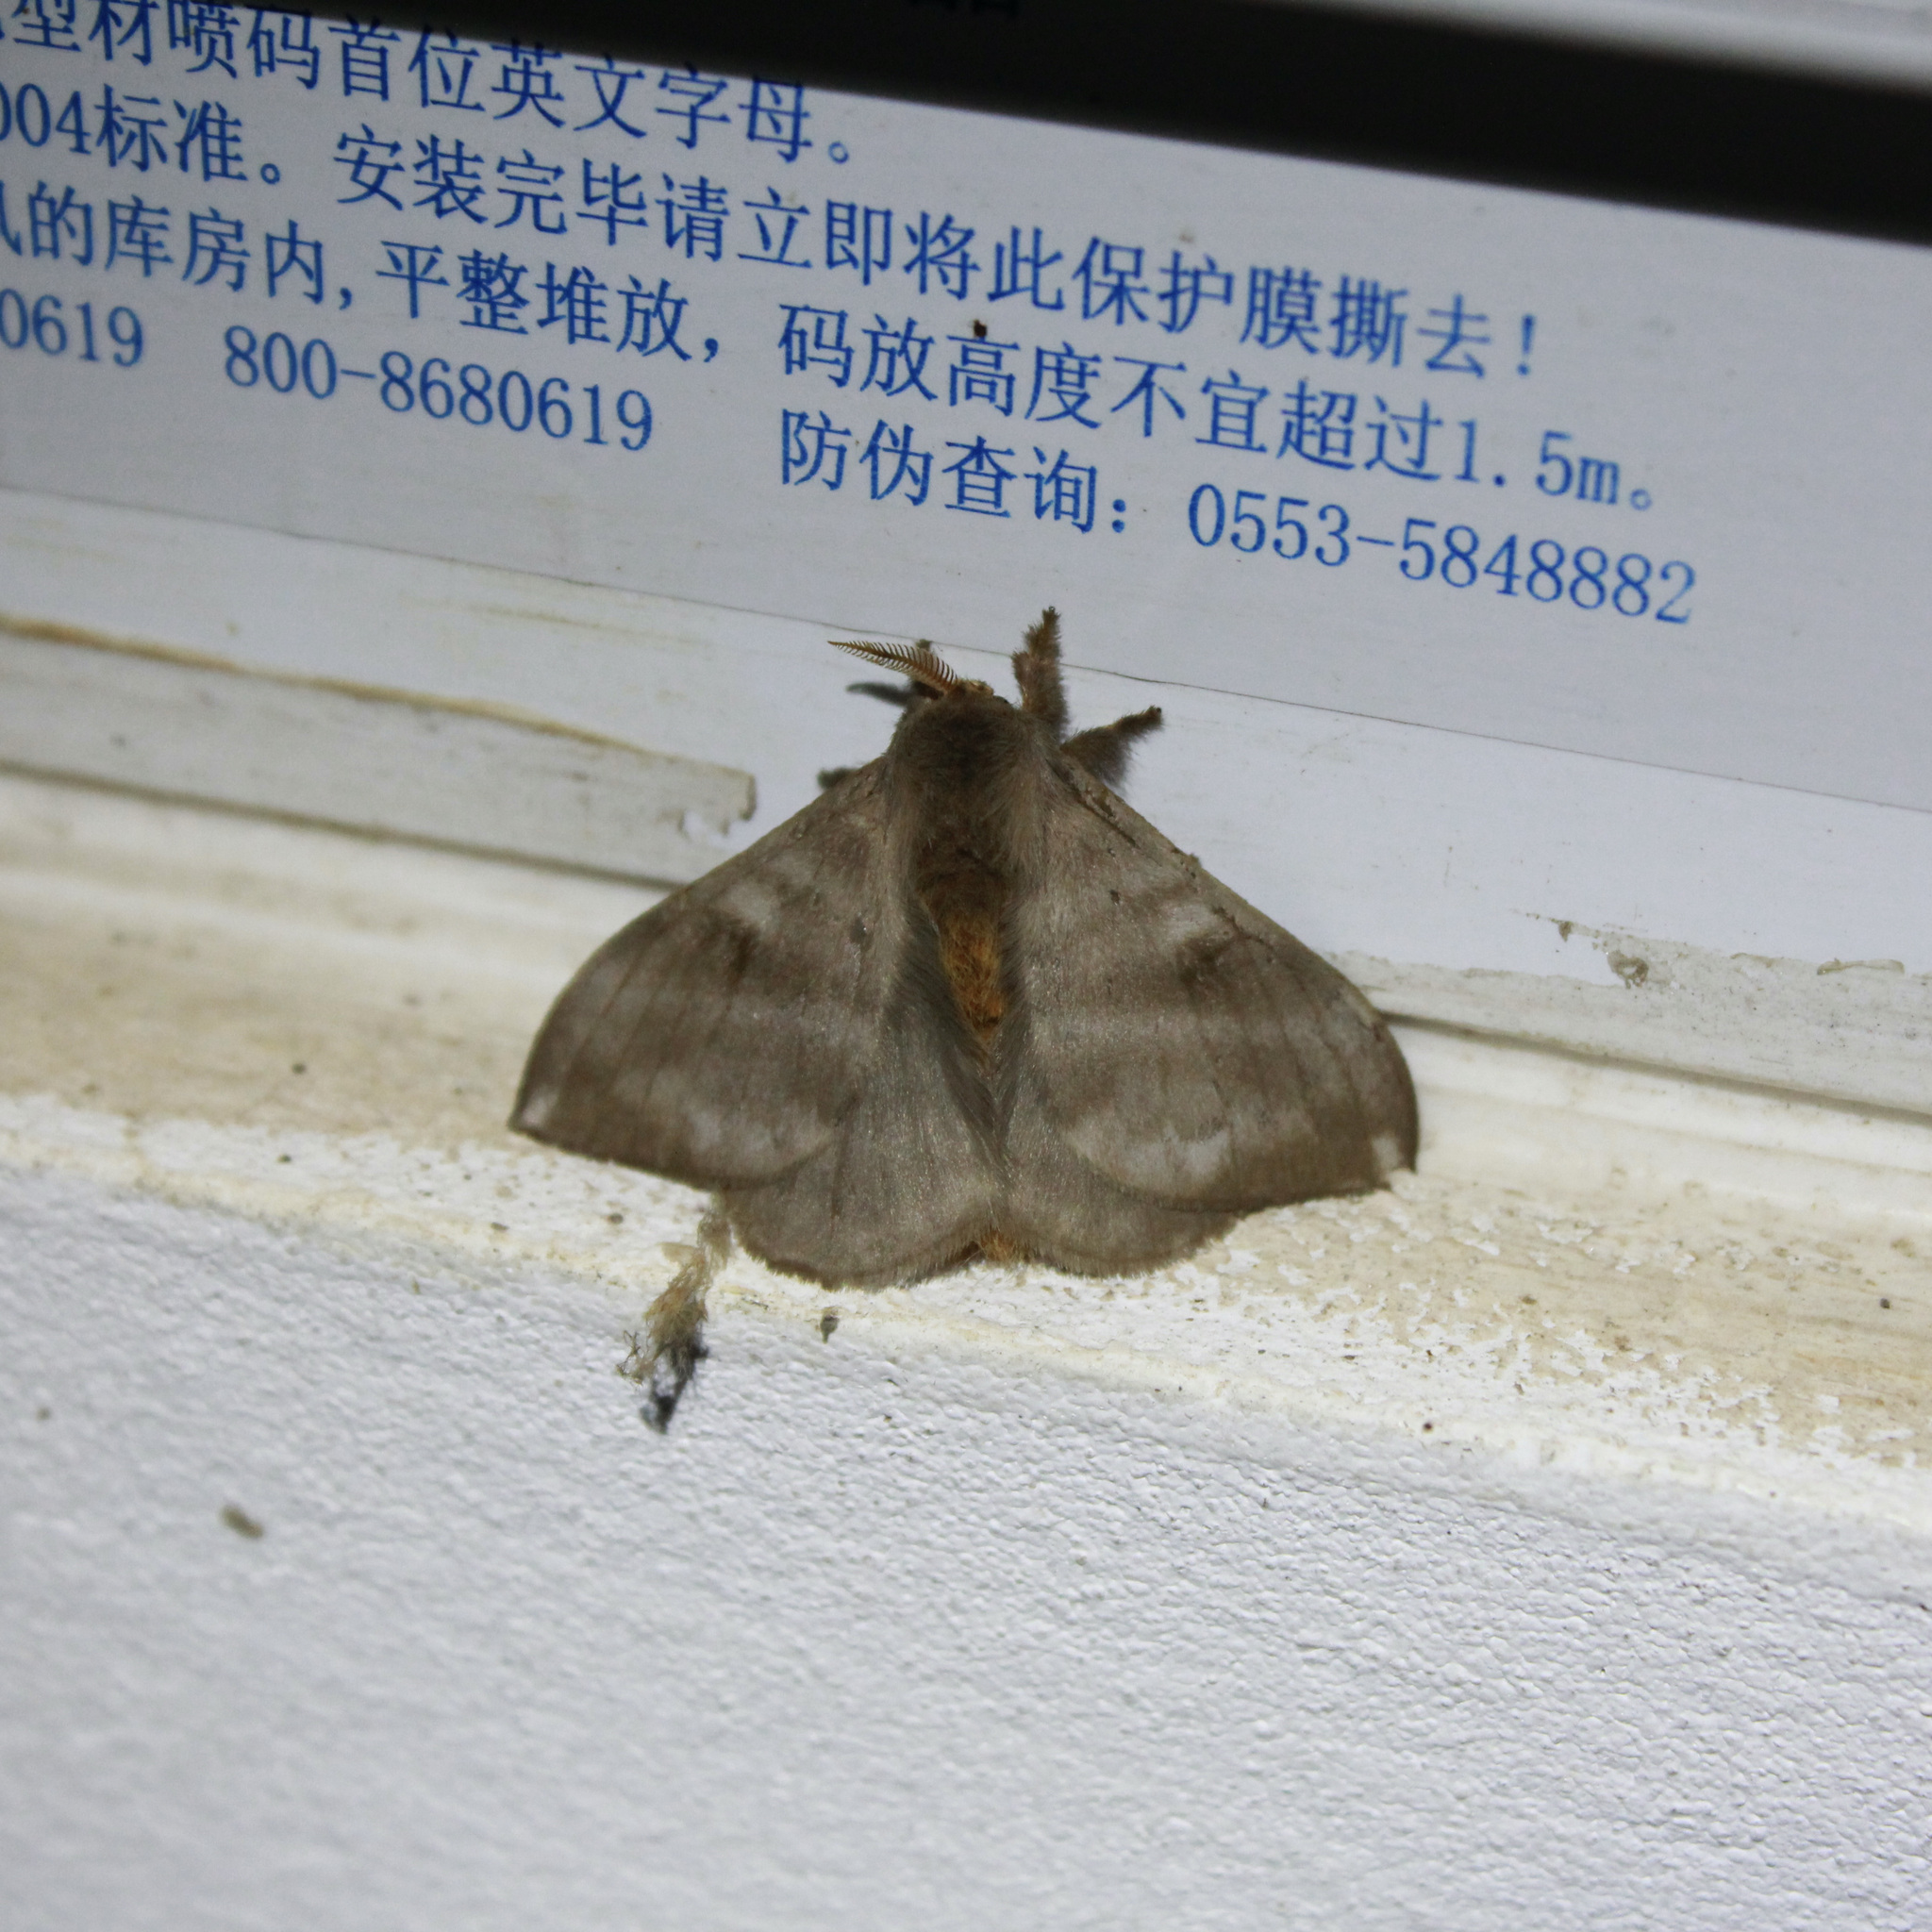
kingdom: Animalia
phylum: Arthropoda
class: Insecta
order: Lepidoptera
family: Saturniidae
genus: Hylesia
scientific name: Hylesia metabus
